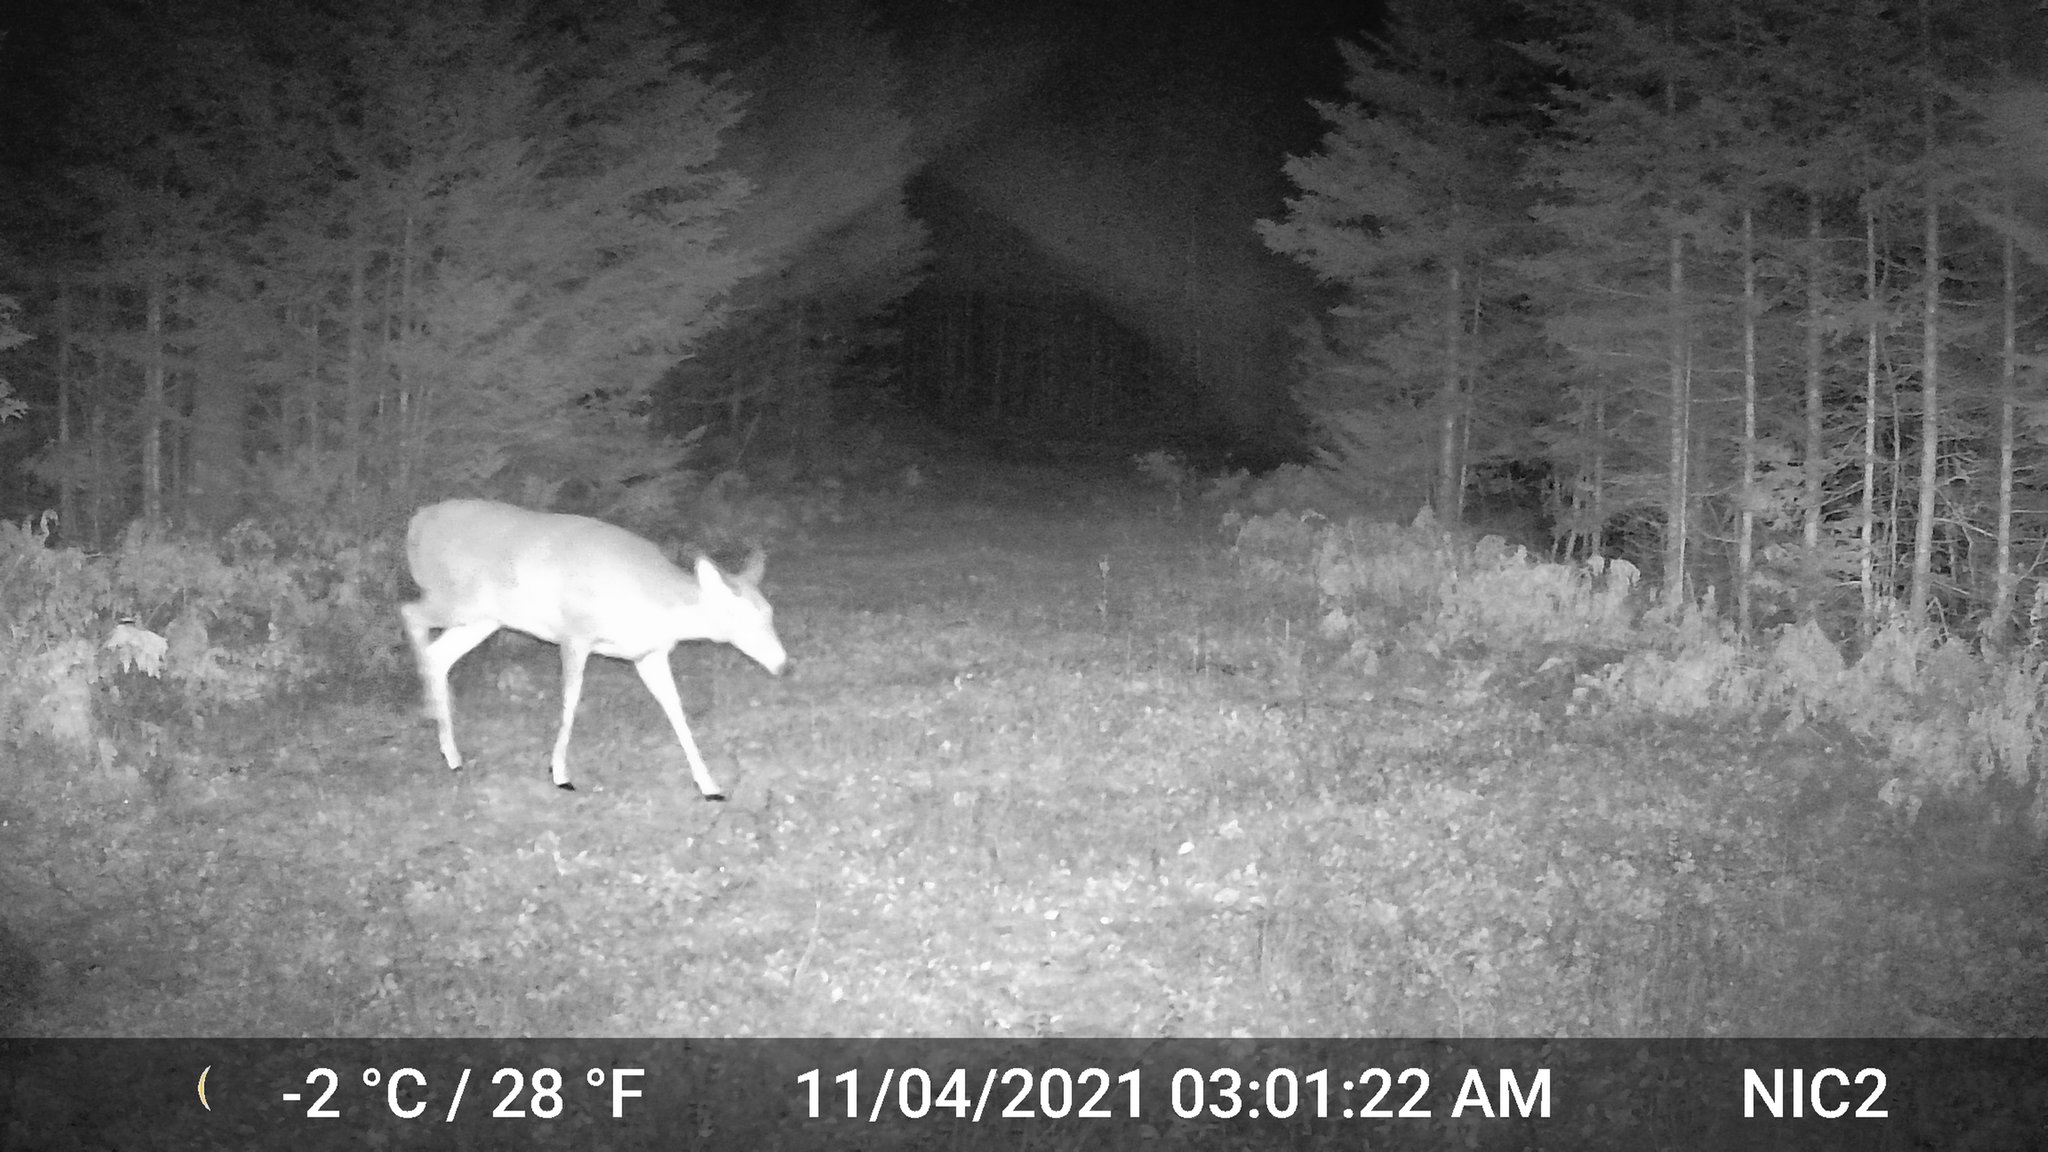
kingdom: Animalia
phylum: Chordata
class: Mammalia
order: Artiodactyla
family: Cervidae
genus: Odocoileus
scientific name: Odocoileus virginianus
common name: White-tailed deer
